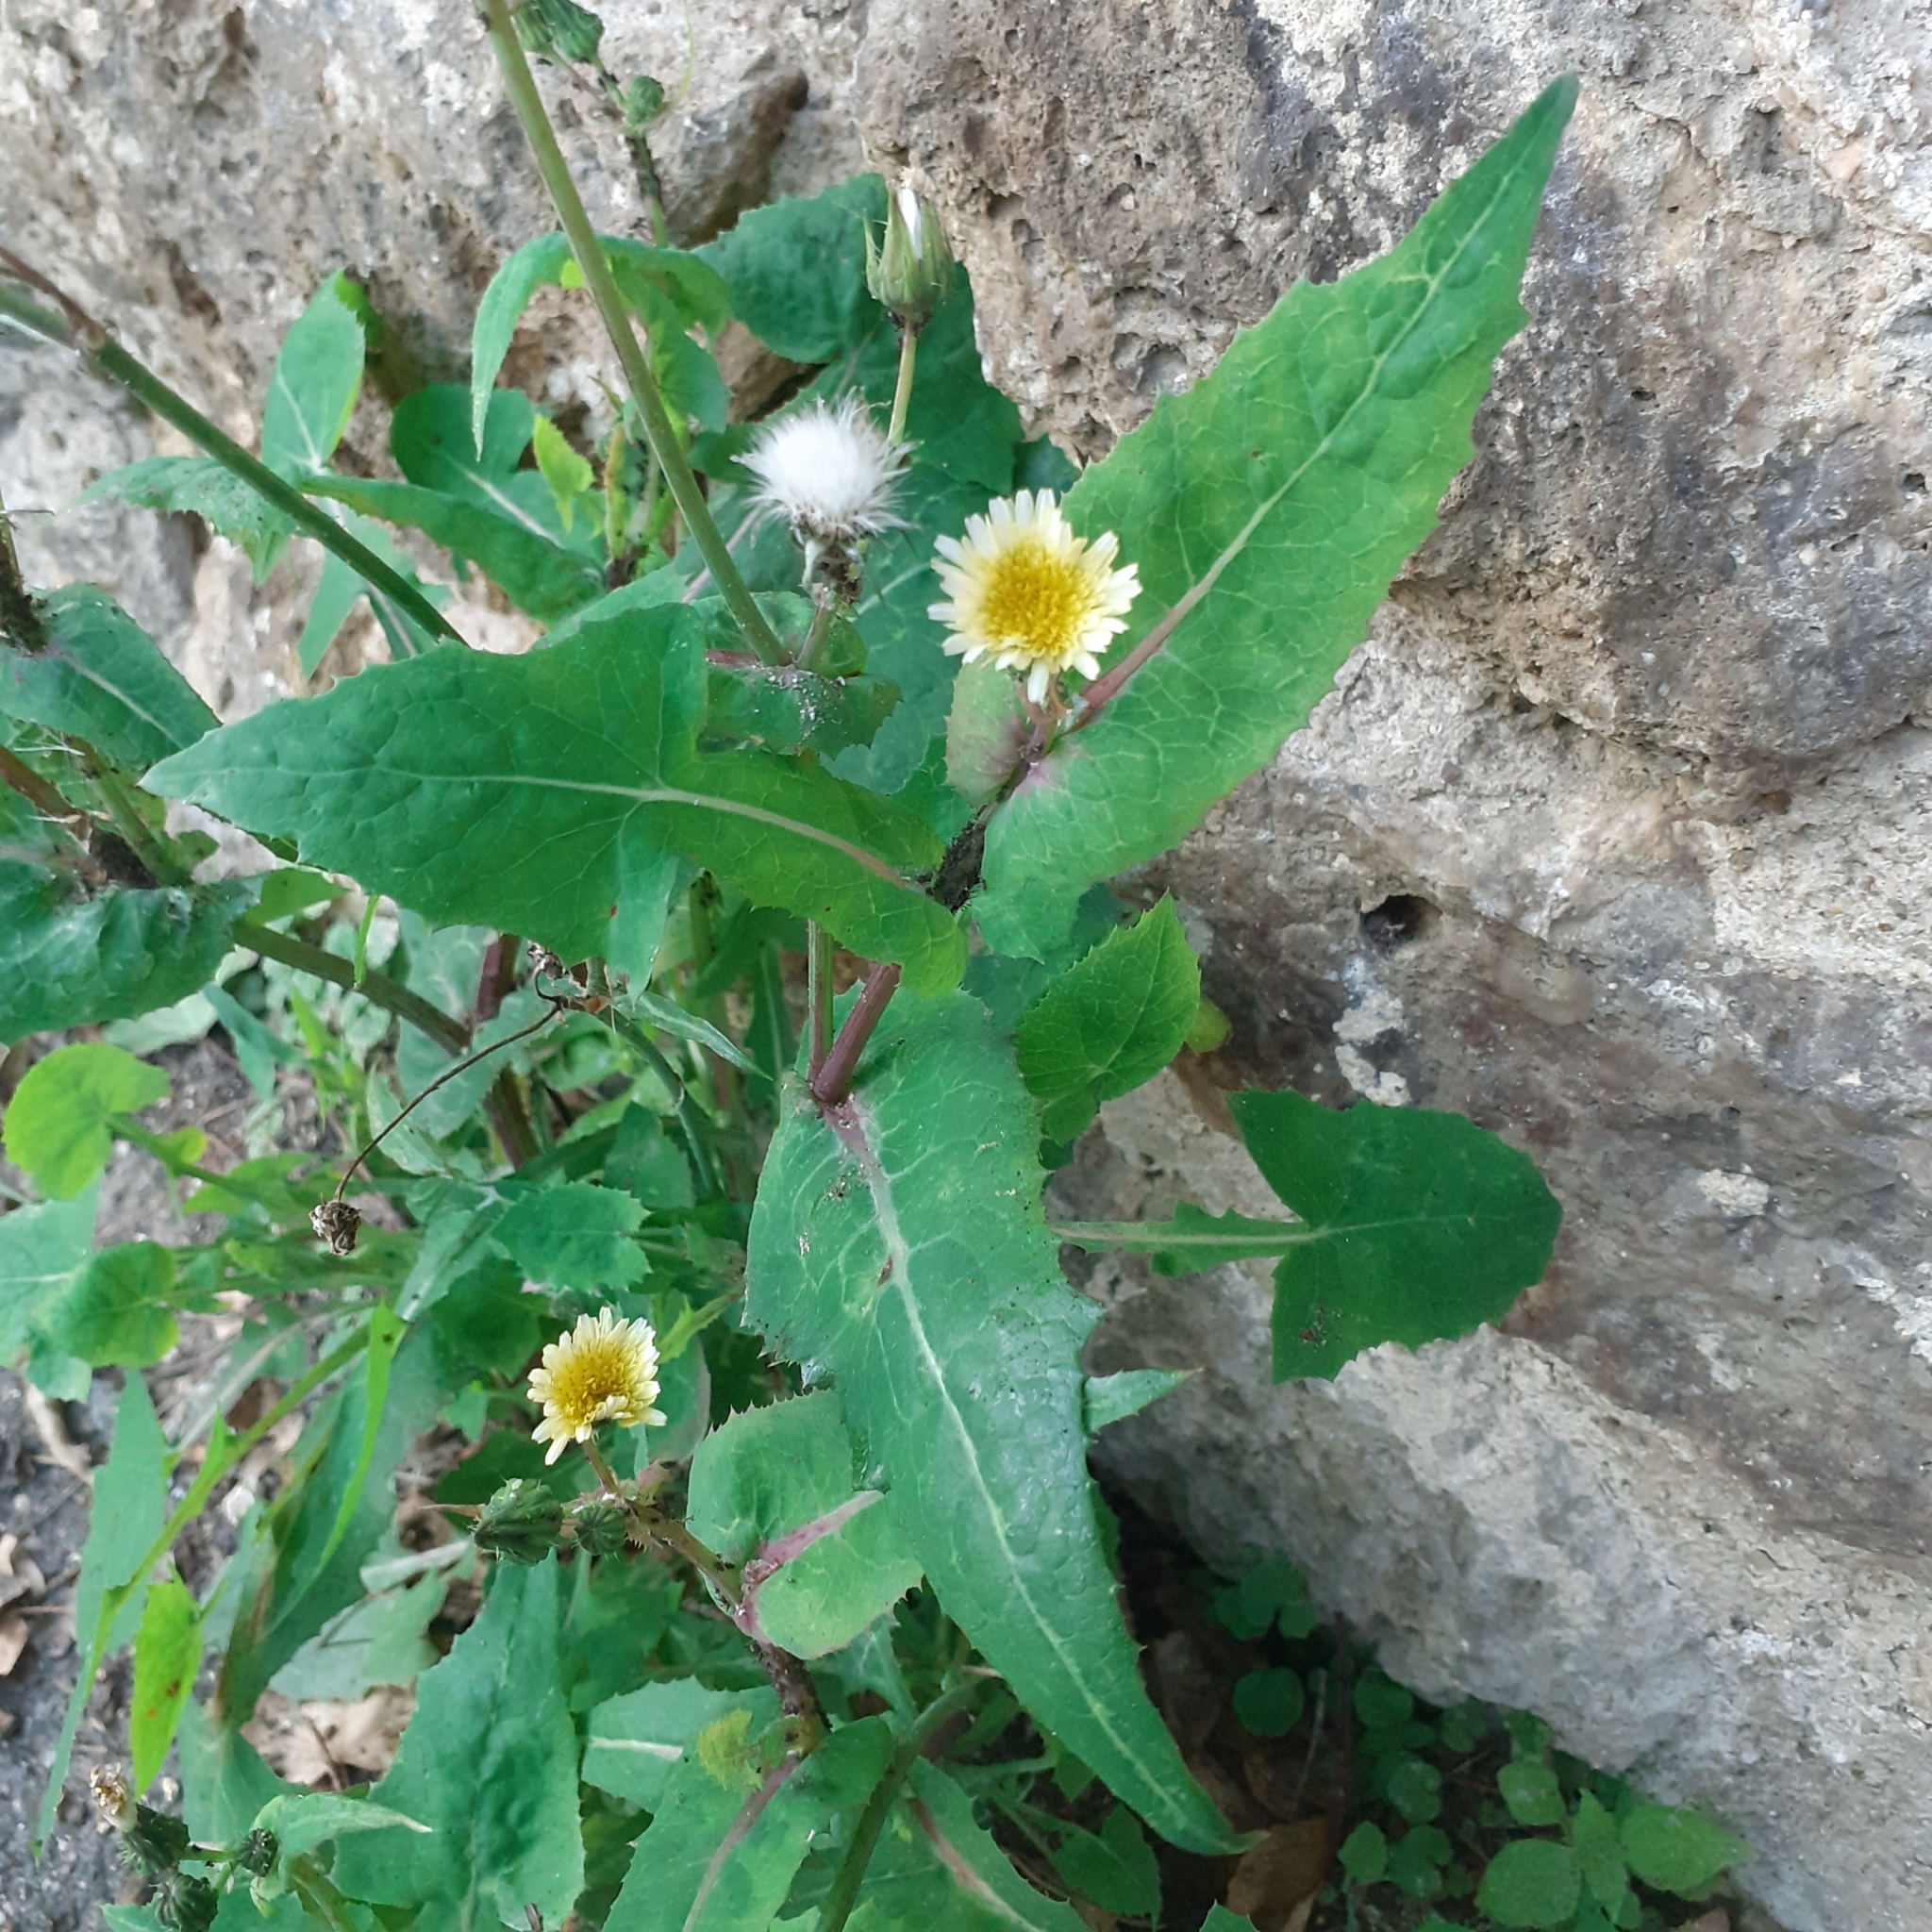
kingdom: Plantae
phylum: Tracheophyta
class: Magnoliopsida
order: Asterales
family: Asteraceae
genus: Sonchus
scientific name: Sonchus oleraceus
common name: Common sowthistle
